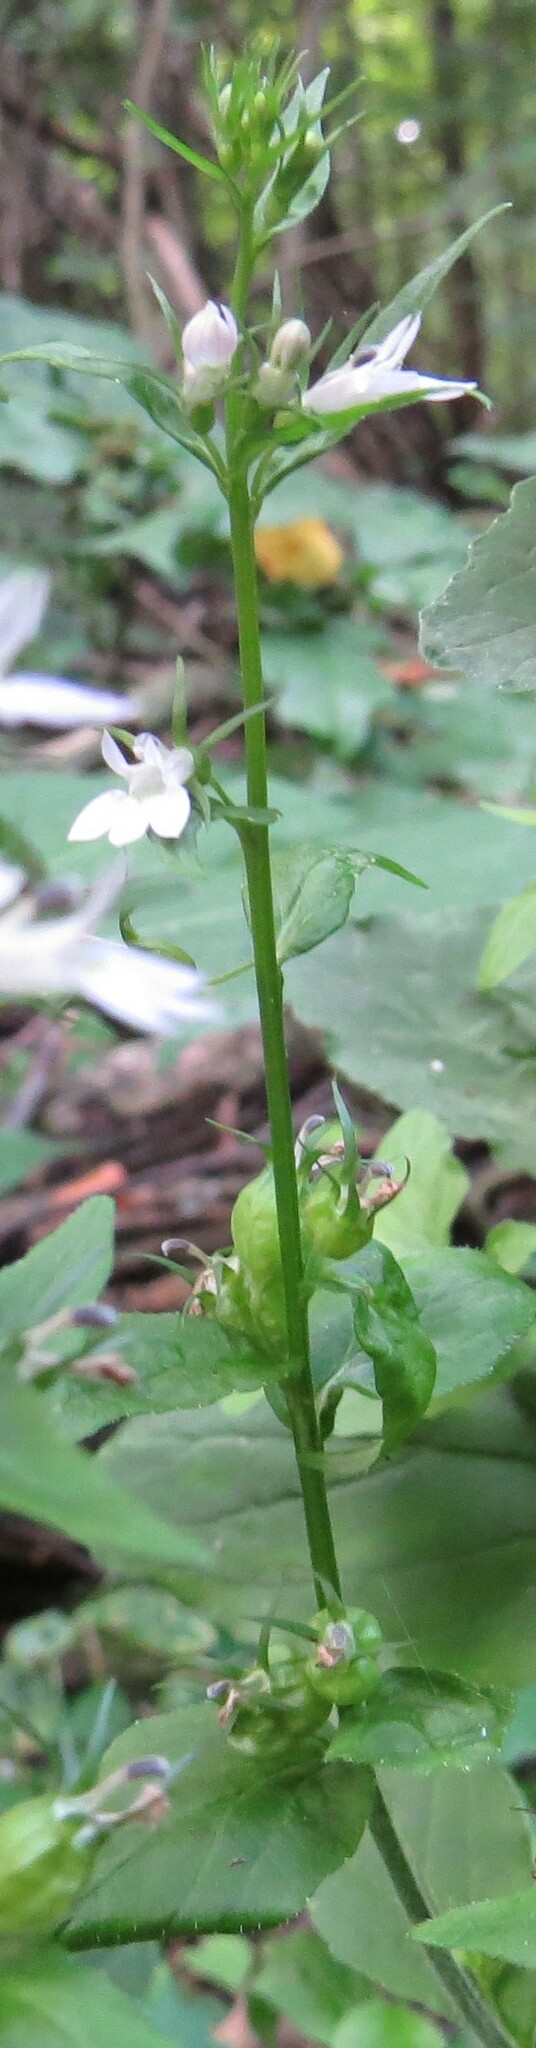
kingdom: Plantae
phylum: Tracheophyta
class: Magnoliopsida
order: Asterales
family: Campanulaceae
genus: Lobelia
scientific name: Lobelia inflata
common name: Indian tobacco
